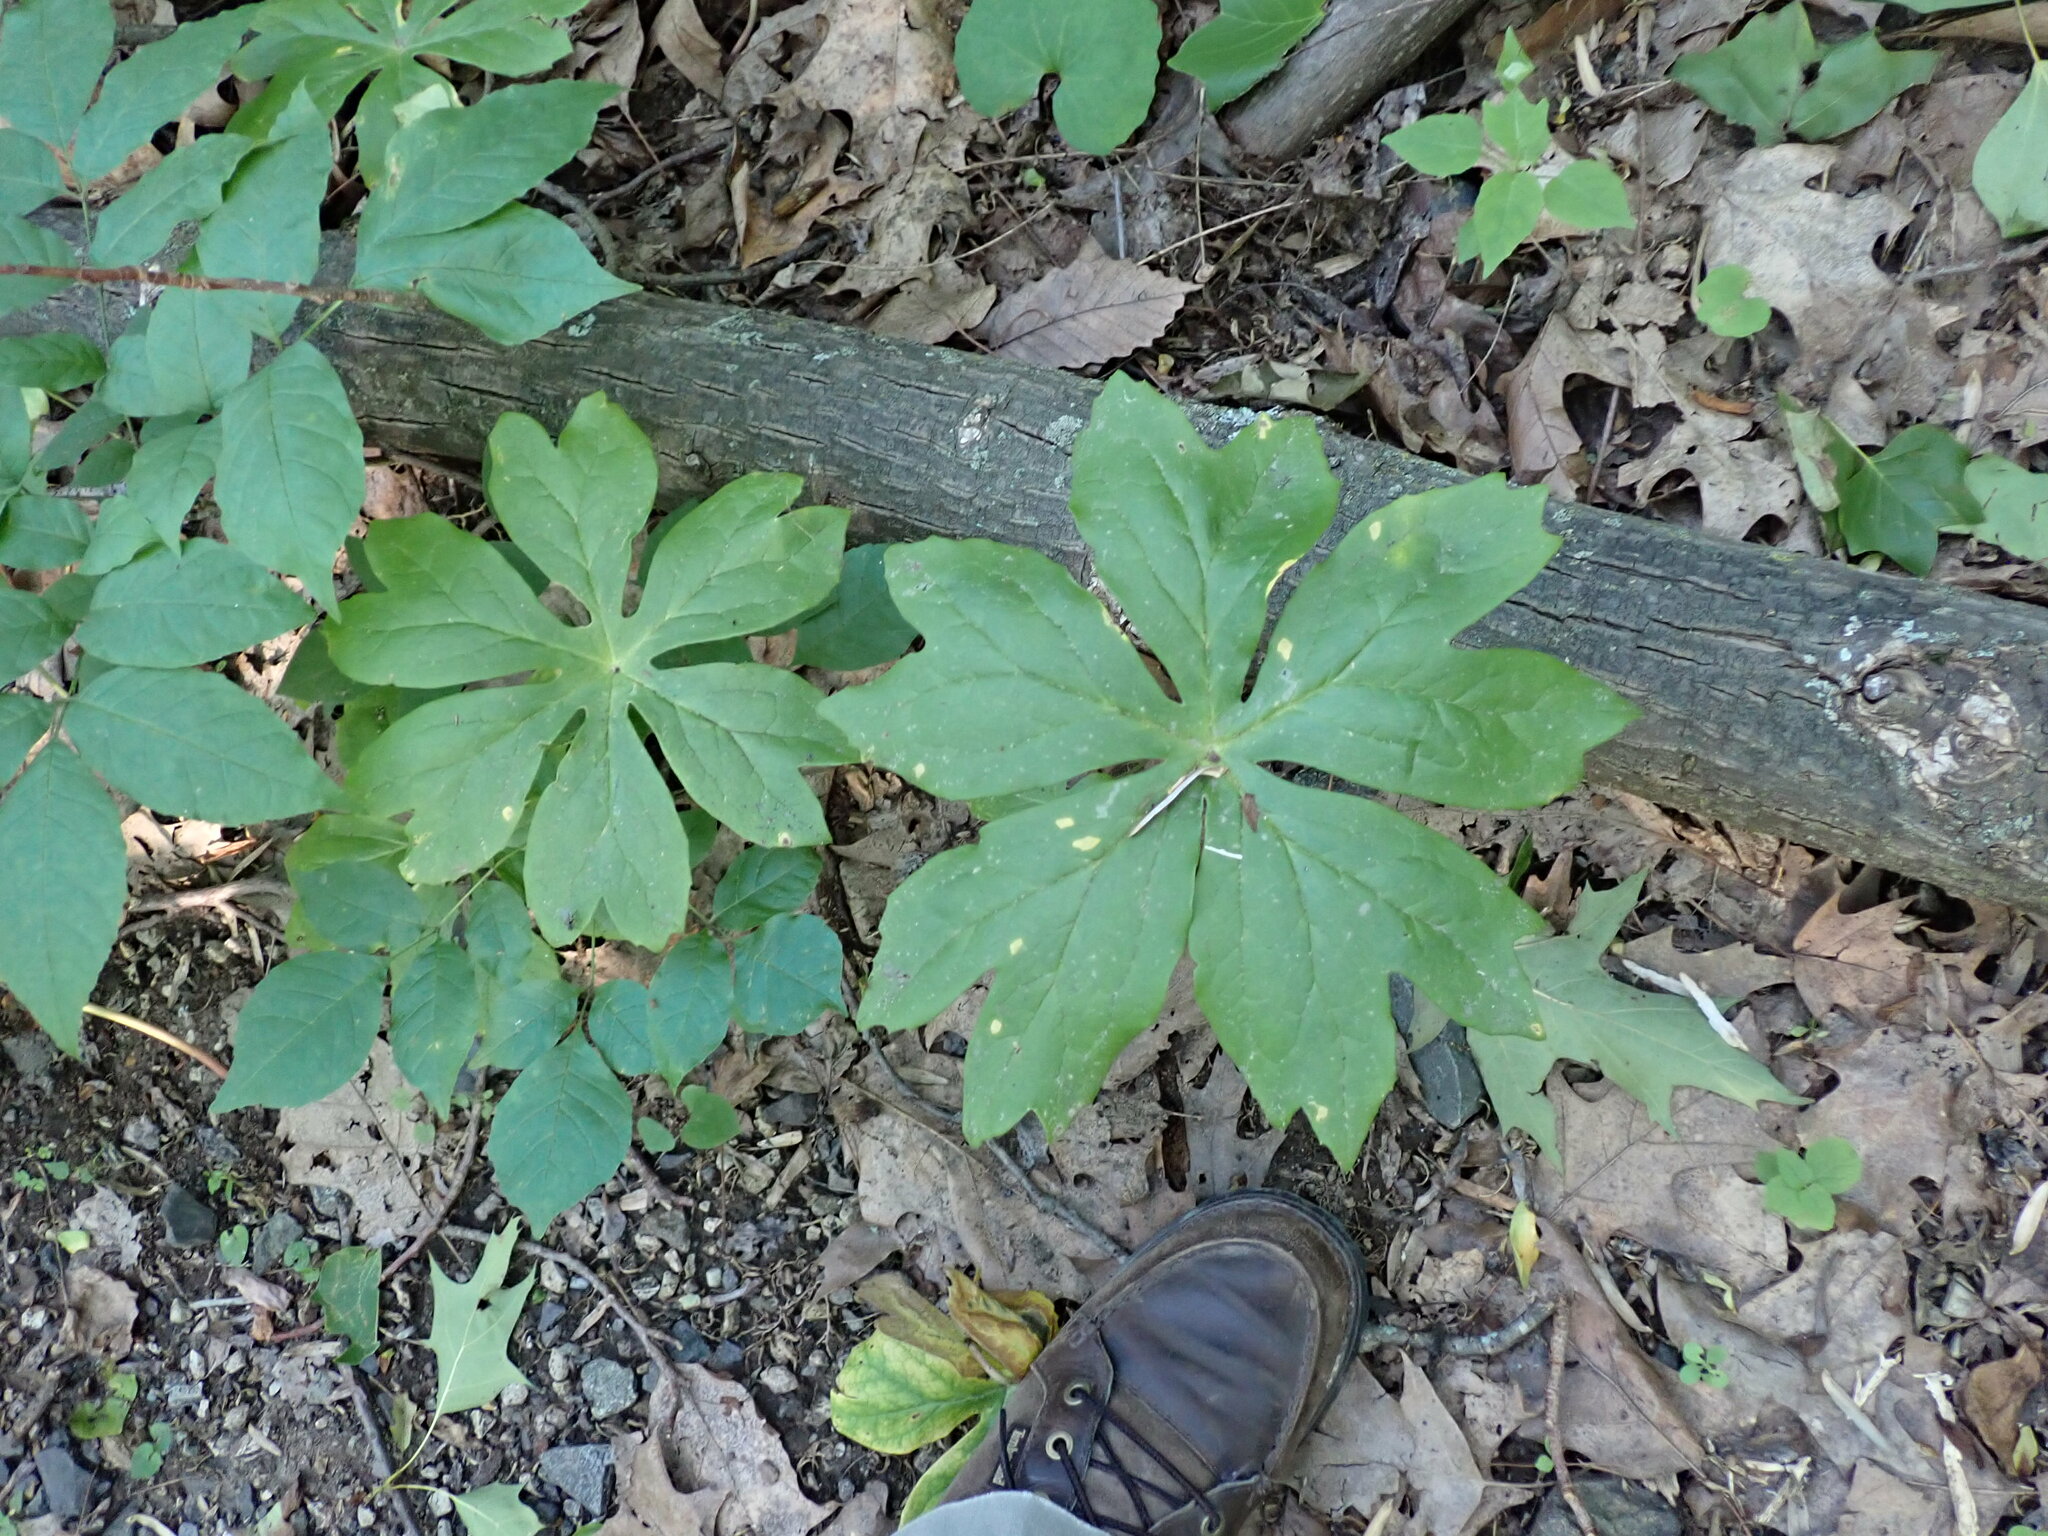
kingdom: Plantae
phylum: Tracheophyta
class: Magnoliopsida
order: Ranunculales
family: Berberidaceae
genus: Podophyllum
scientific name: Podophyllum peltatum
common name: Wild mandrake
